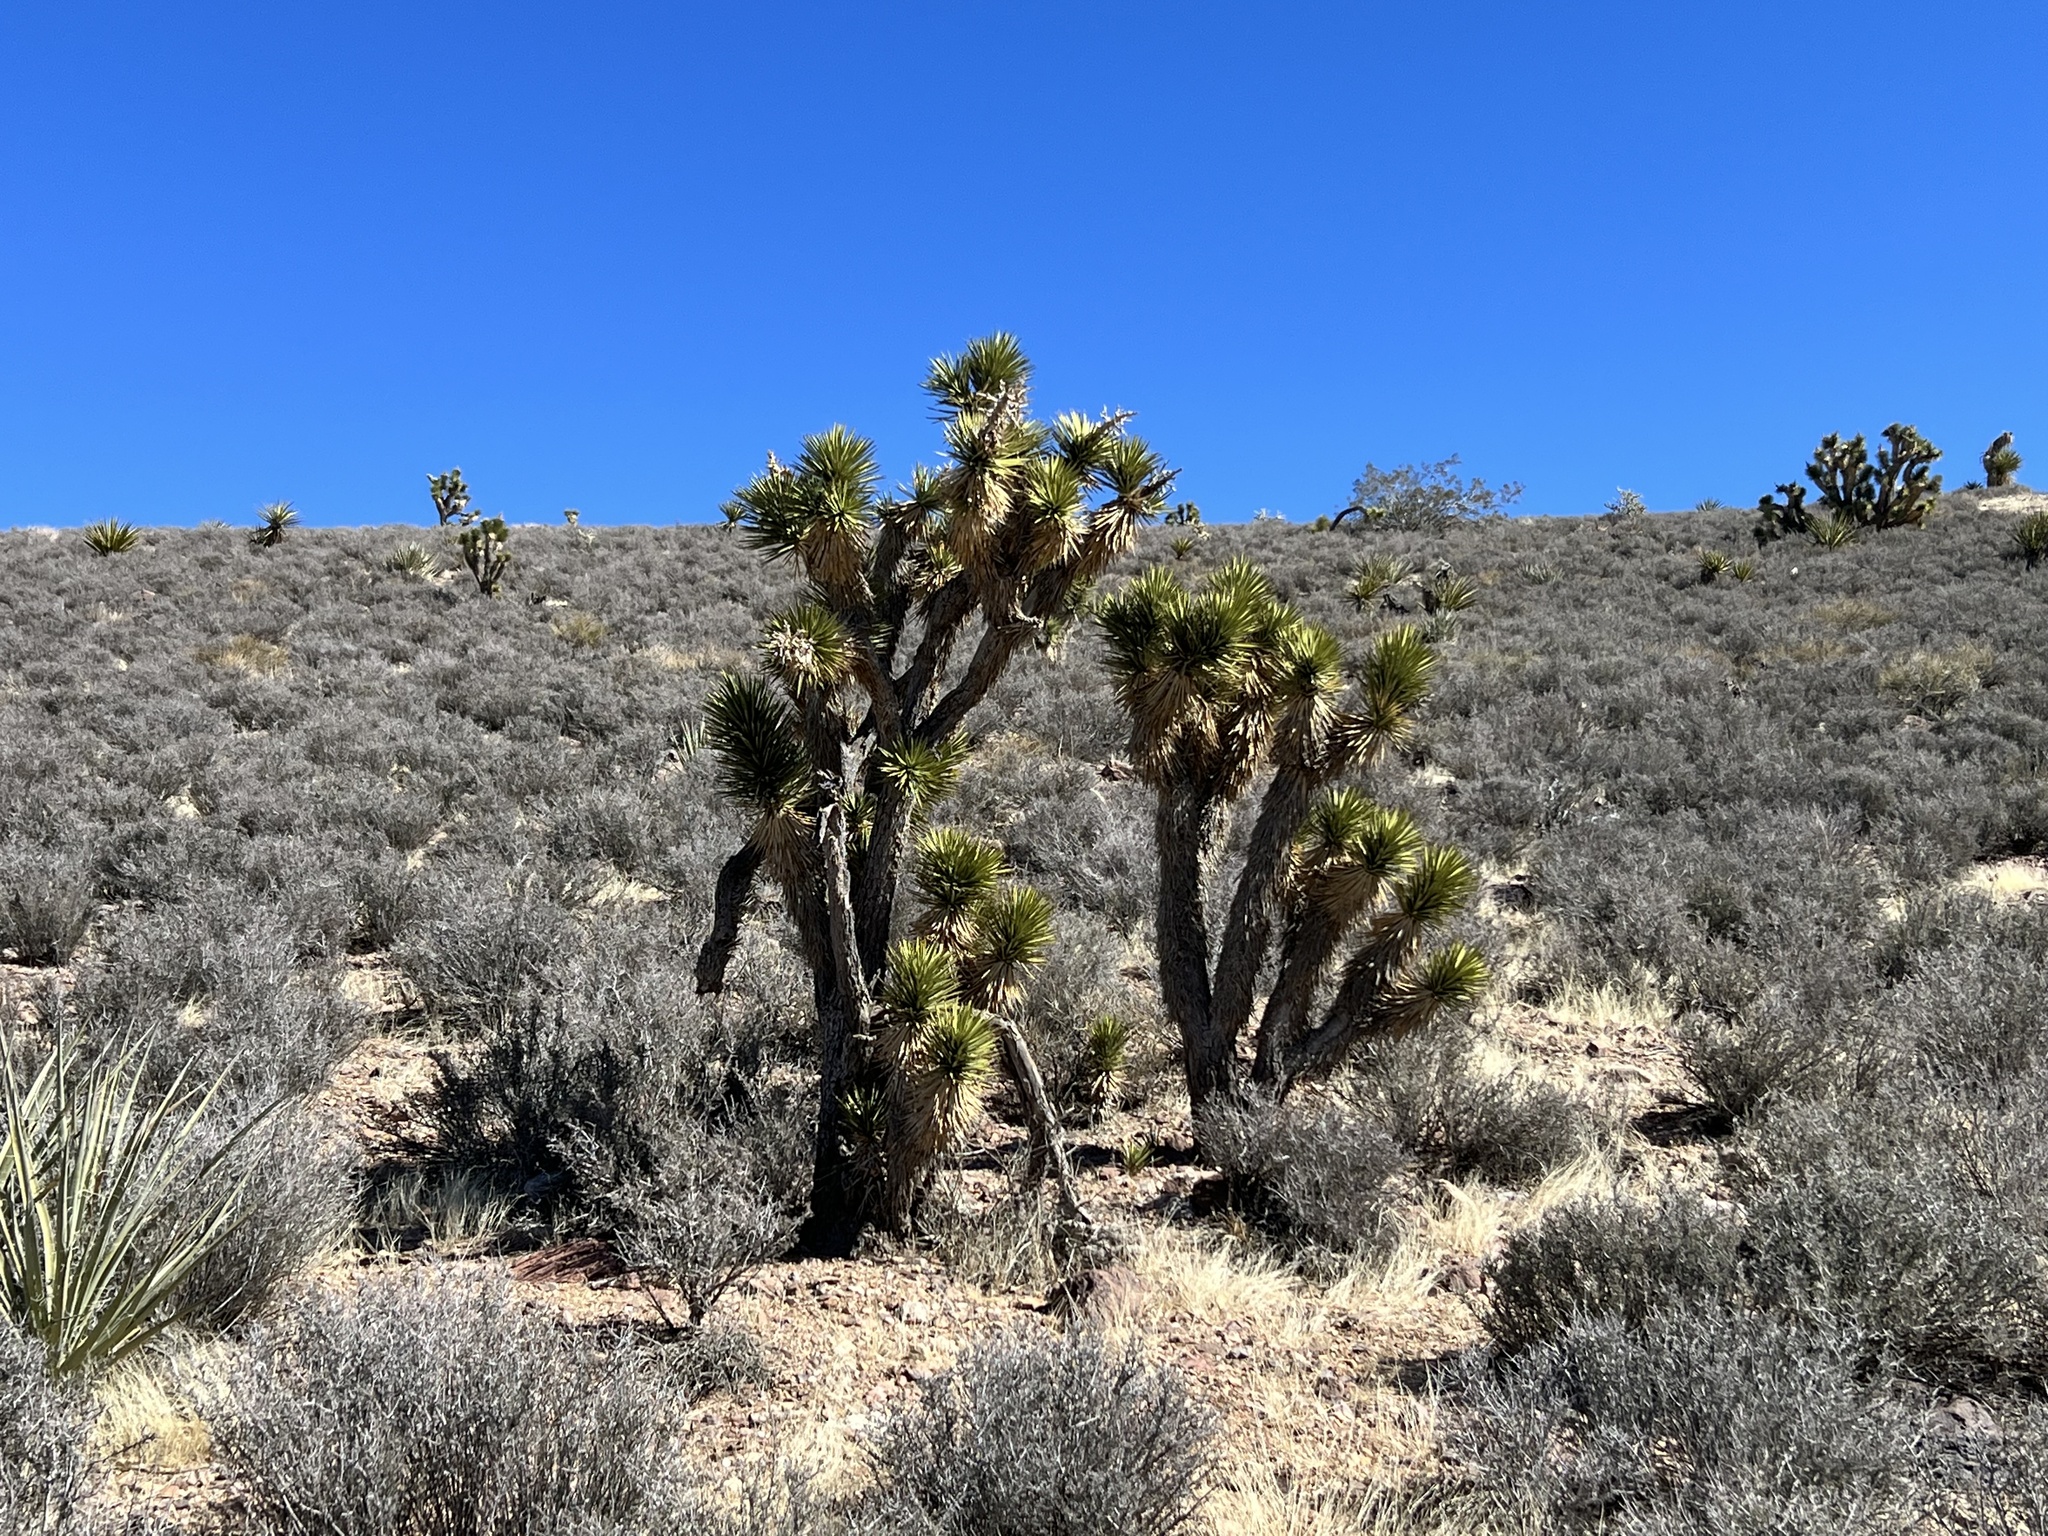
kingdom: Plantae
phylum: Tracheophyta
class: Liliopsida
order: Asparagales
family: Asparagaceae
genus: Yucca
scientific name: Yucca brevifolia
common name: Joshua tree
